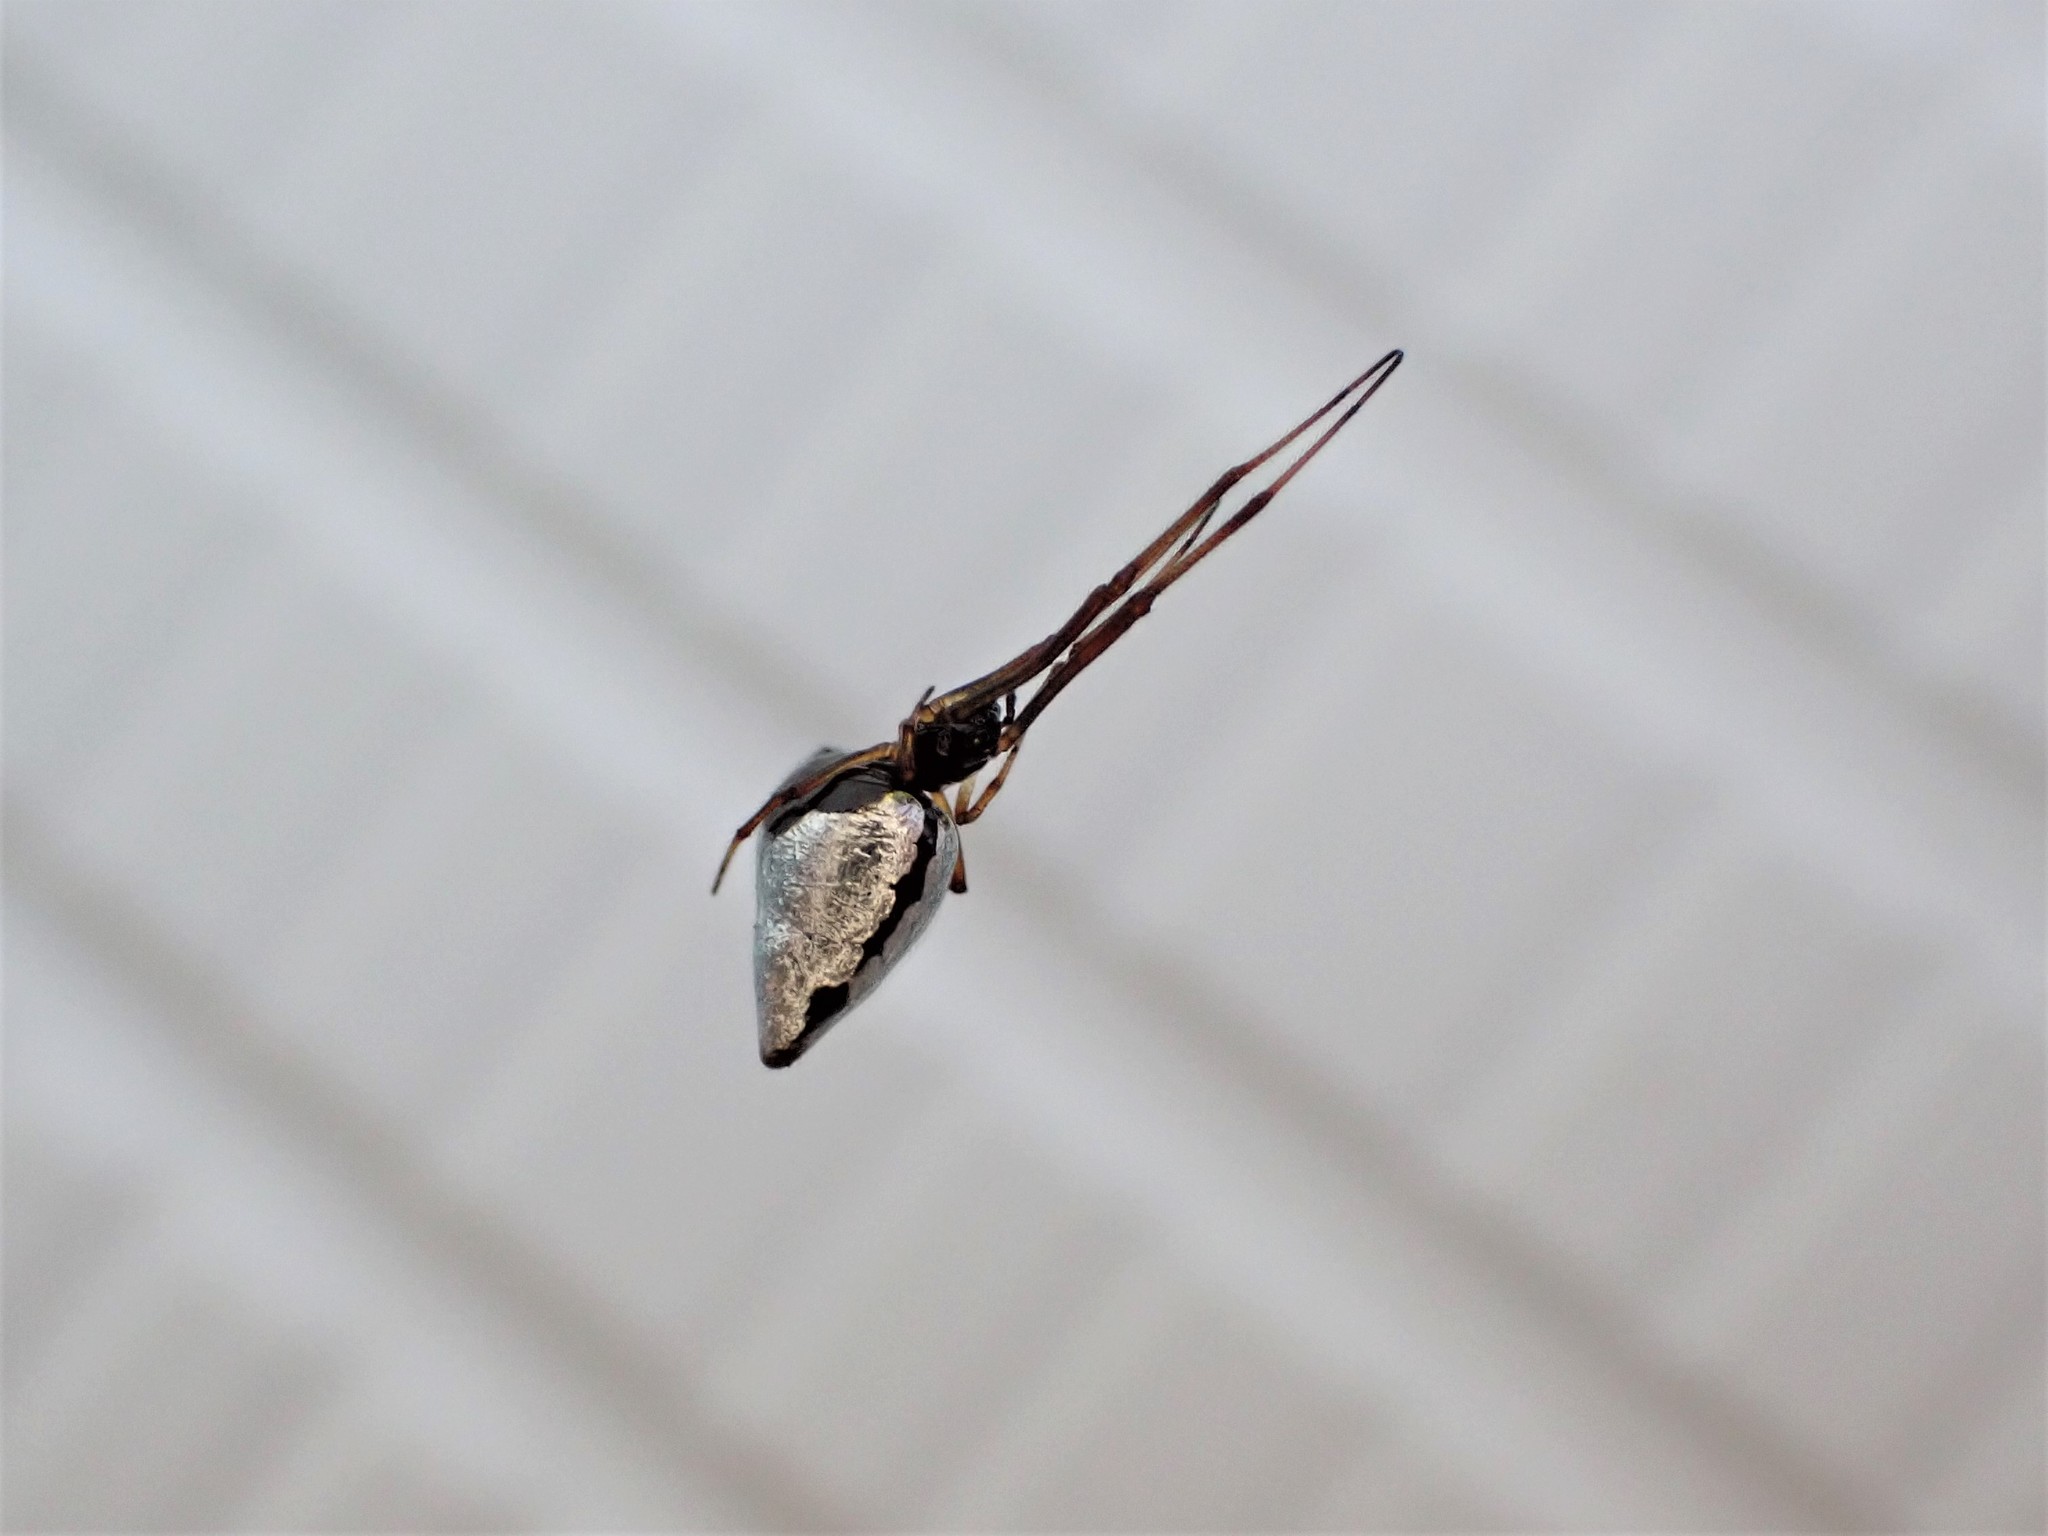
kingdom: Animalia
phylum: Arthropoda
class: Arachnida
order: Araneae
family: Theridiidae
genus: Argyrodes
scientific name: Argyrodes antipodianus
